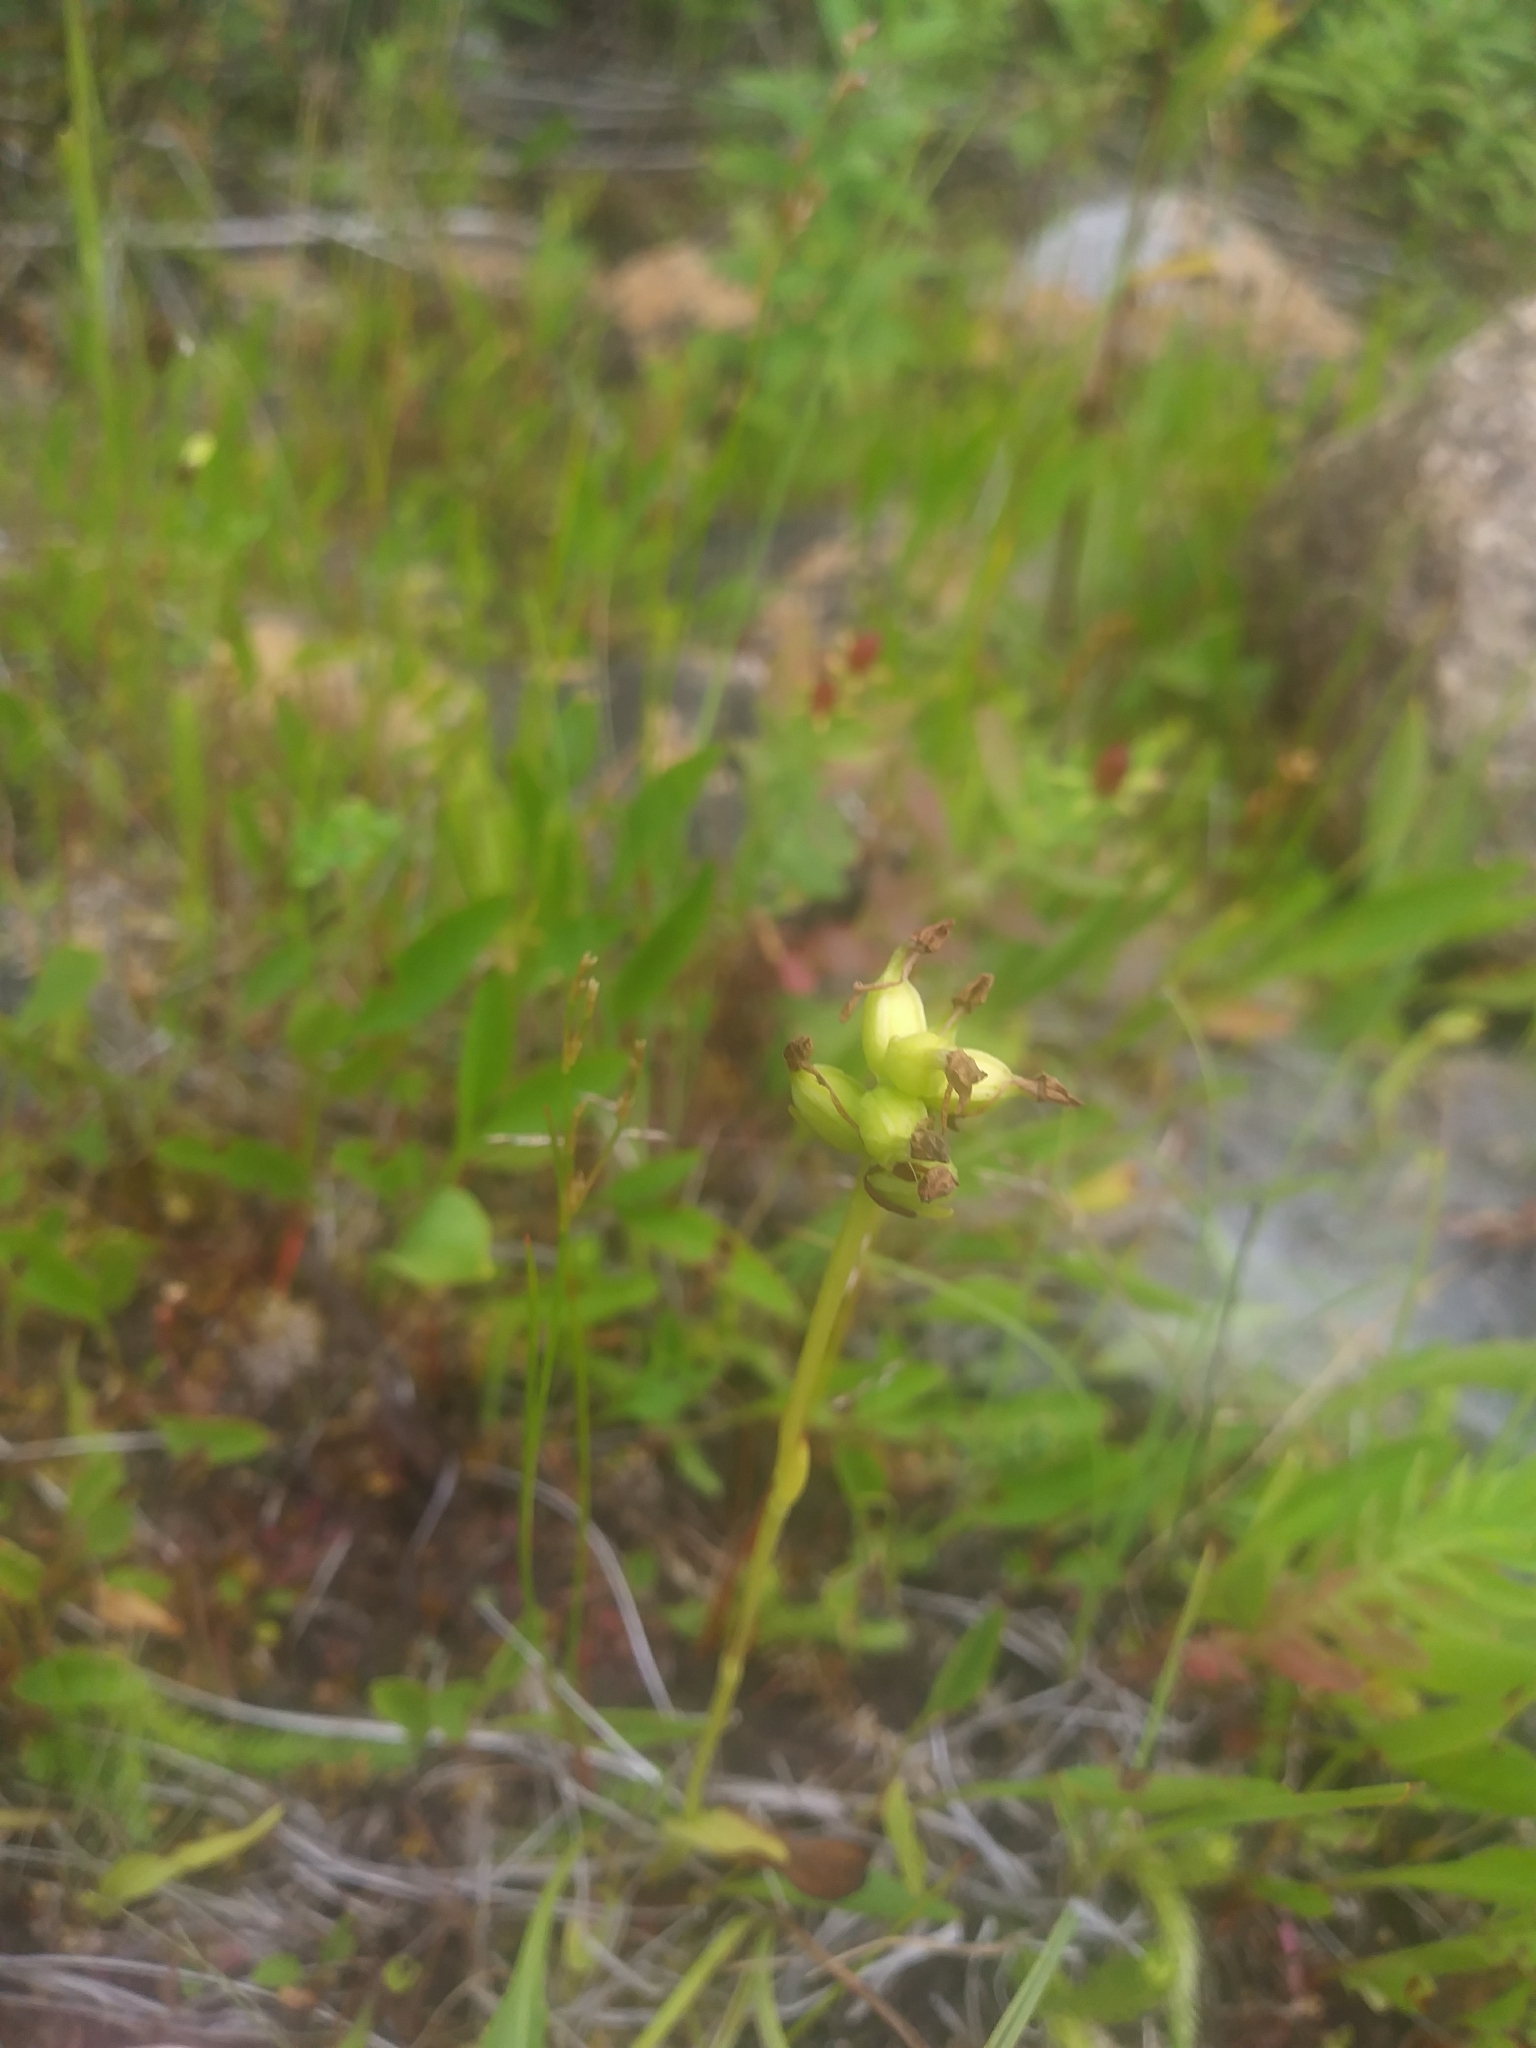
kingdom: Plantae
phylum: Tracheophyta
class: Liliopsida
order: Asparagales
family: Orchidaceae
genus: Platanthera
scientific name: Platanthera clavellata
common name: Club-spur orchid
